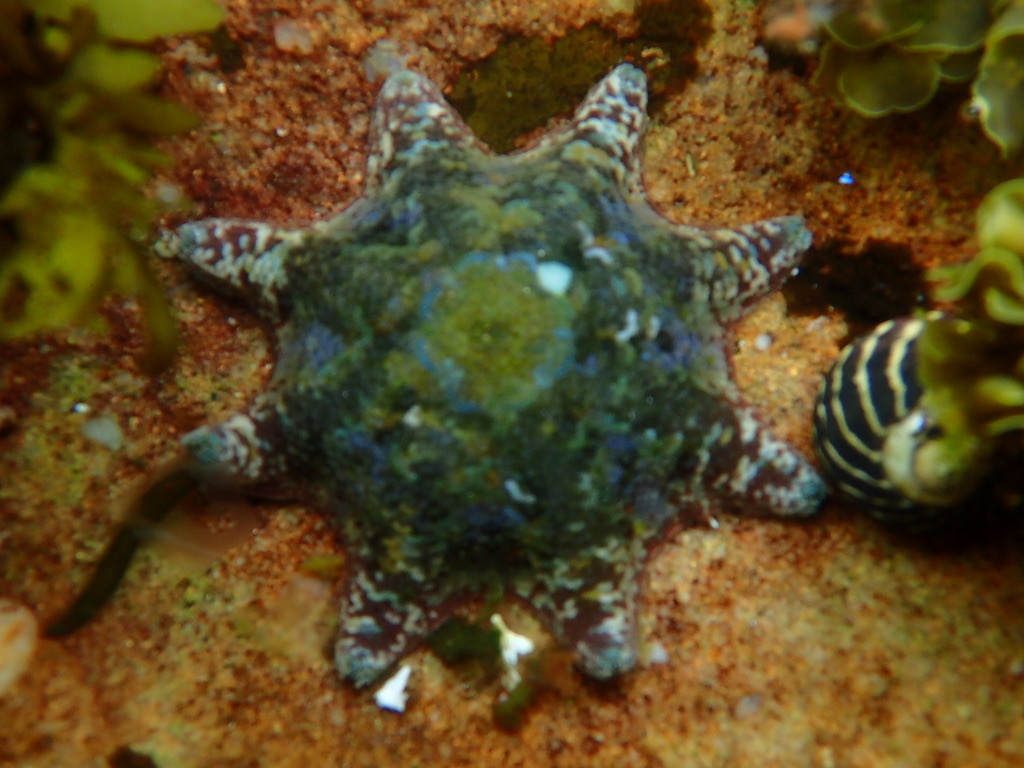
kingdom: Animalia
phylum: Echinodermata
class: Asteroidea
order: Valvatida
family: Asterinidae
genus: Meridiastra
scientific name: Meridiastra calcar
